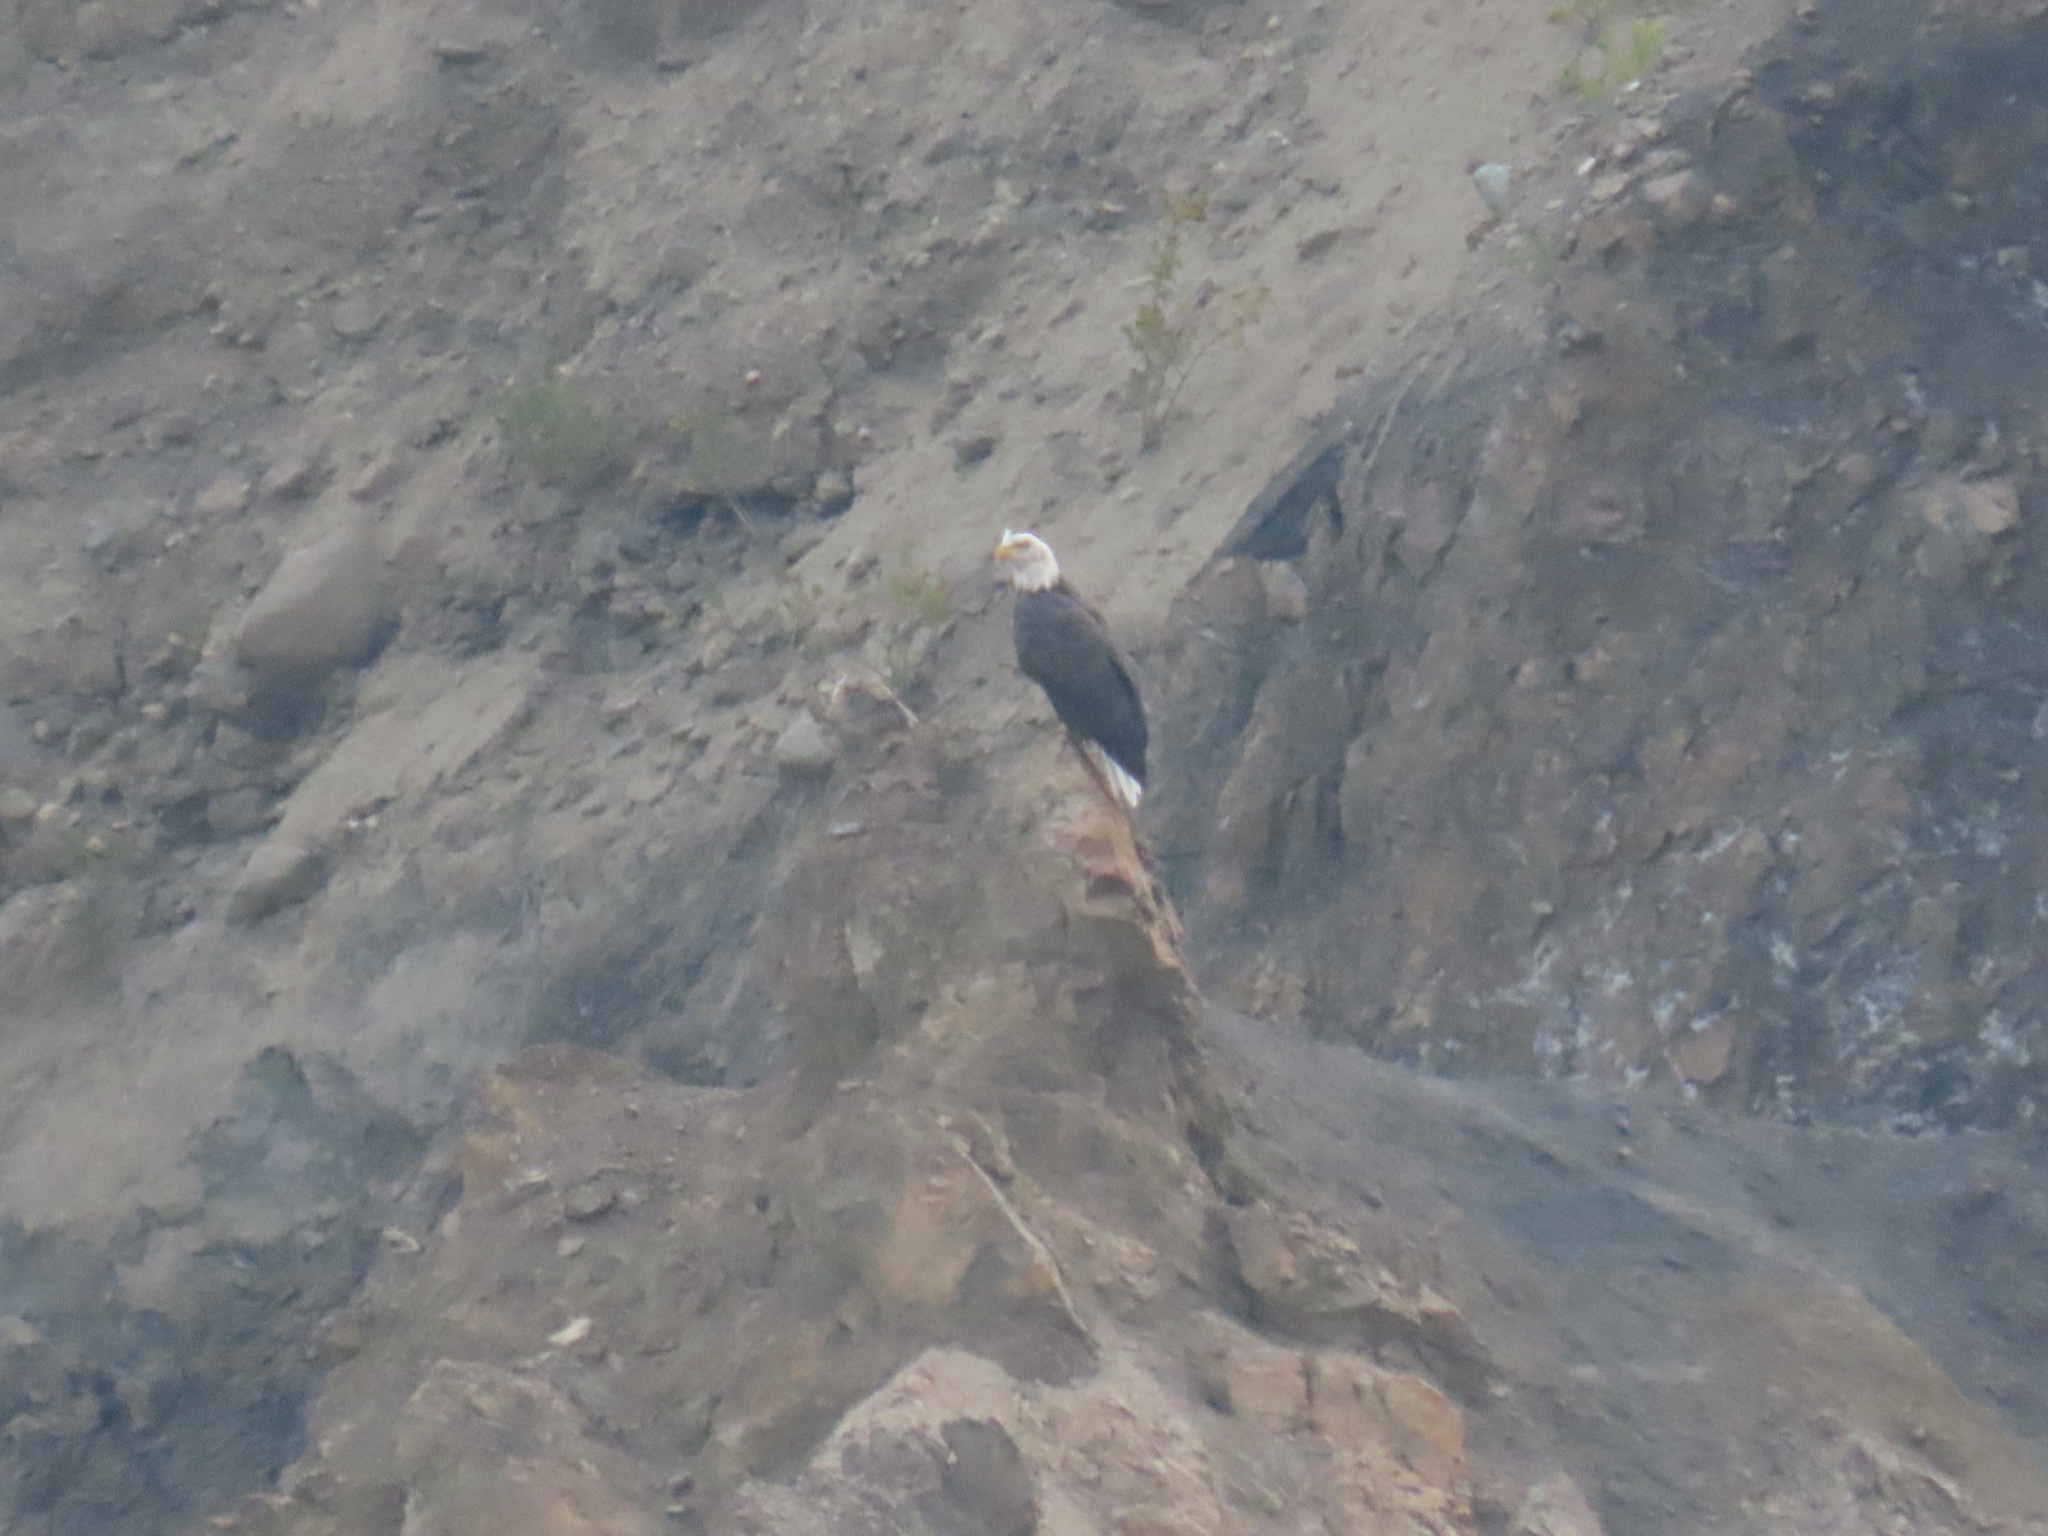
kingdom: Animalia
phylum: Chordata
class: Aves
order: Accipitriformes
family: Accipitridae
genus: Haliaeetus
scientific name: Haliaeetus leucocephalus
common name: Bald eagle
